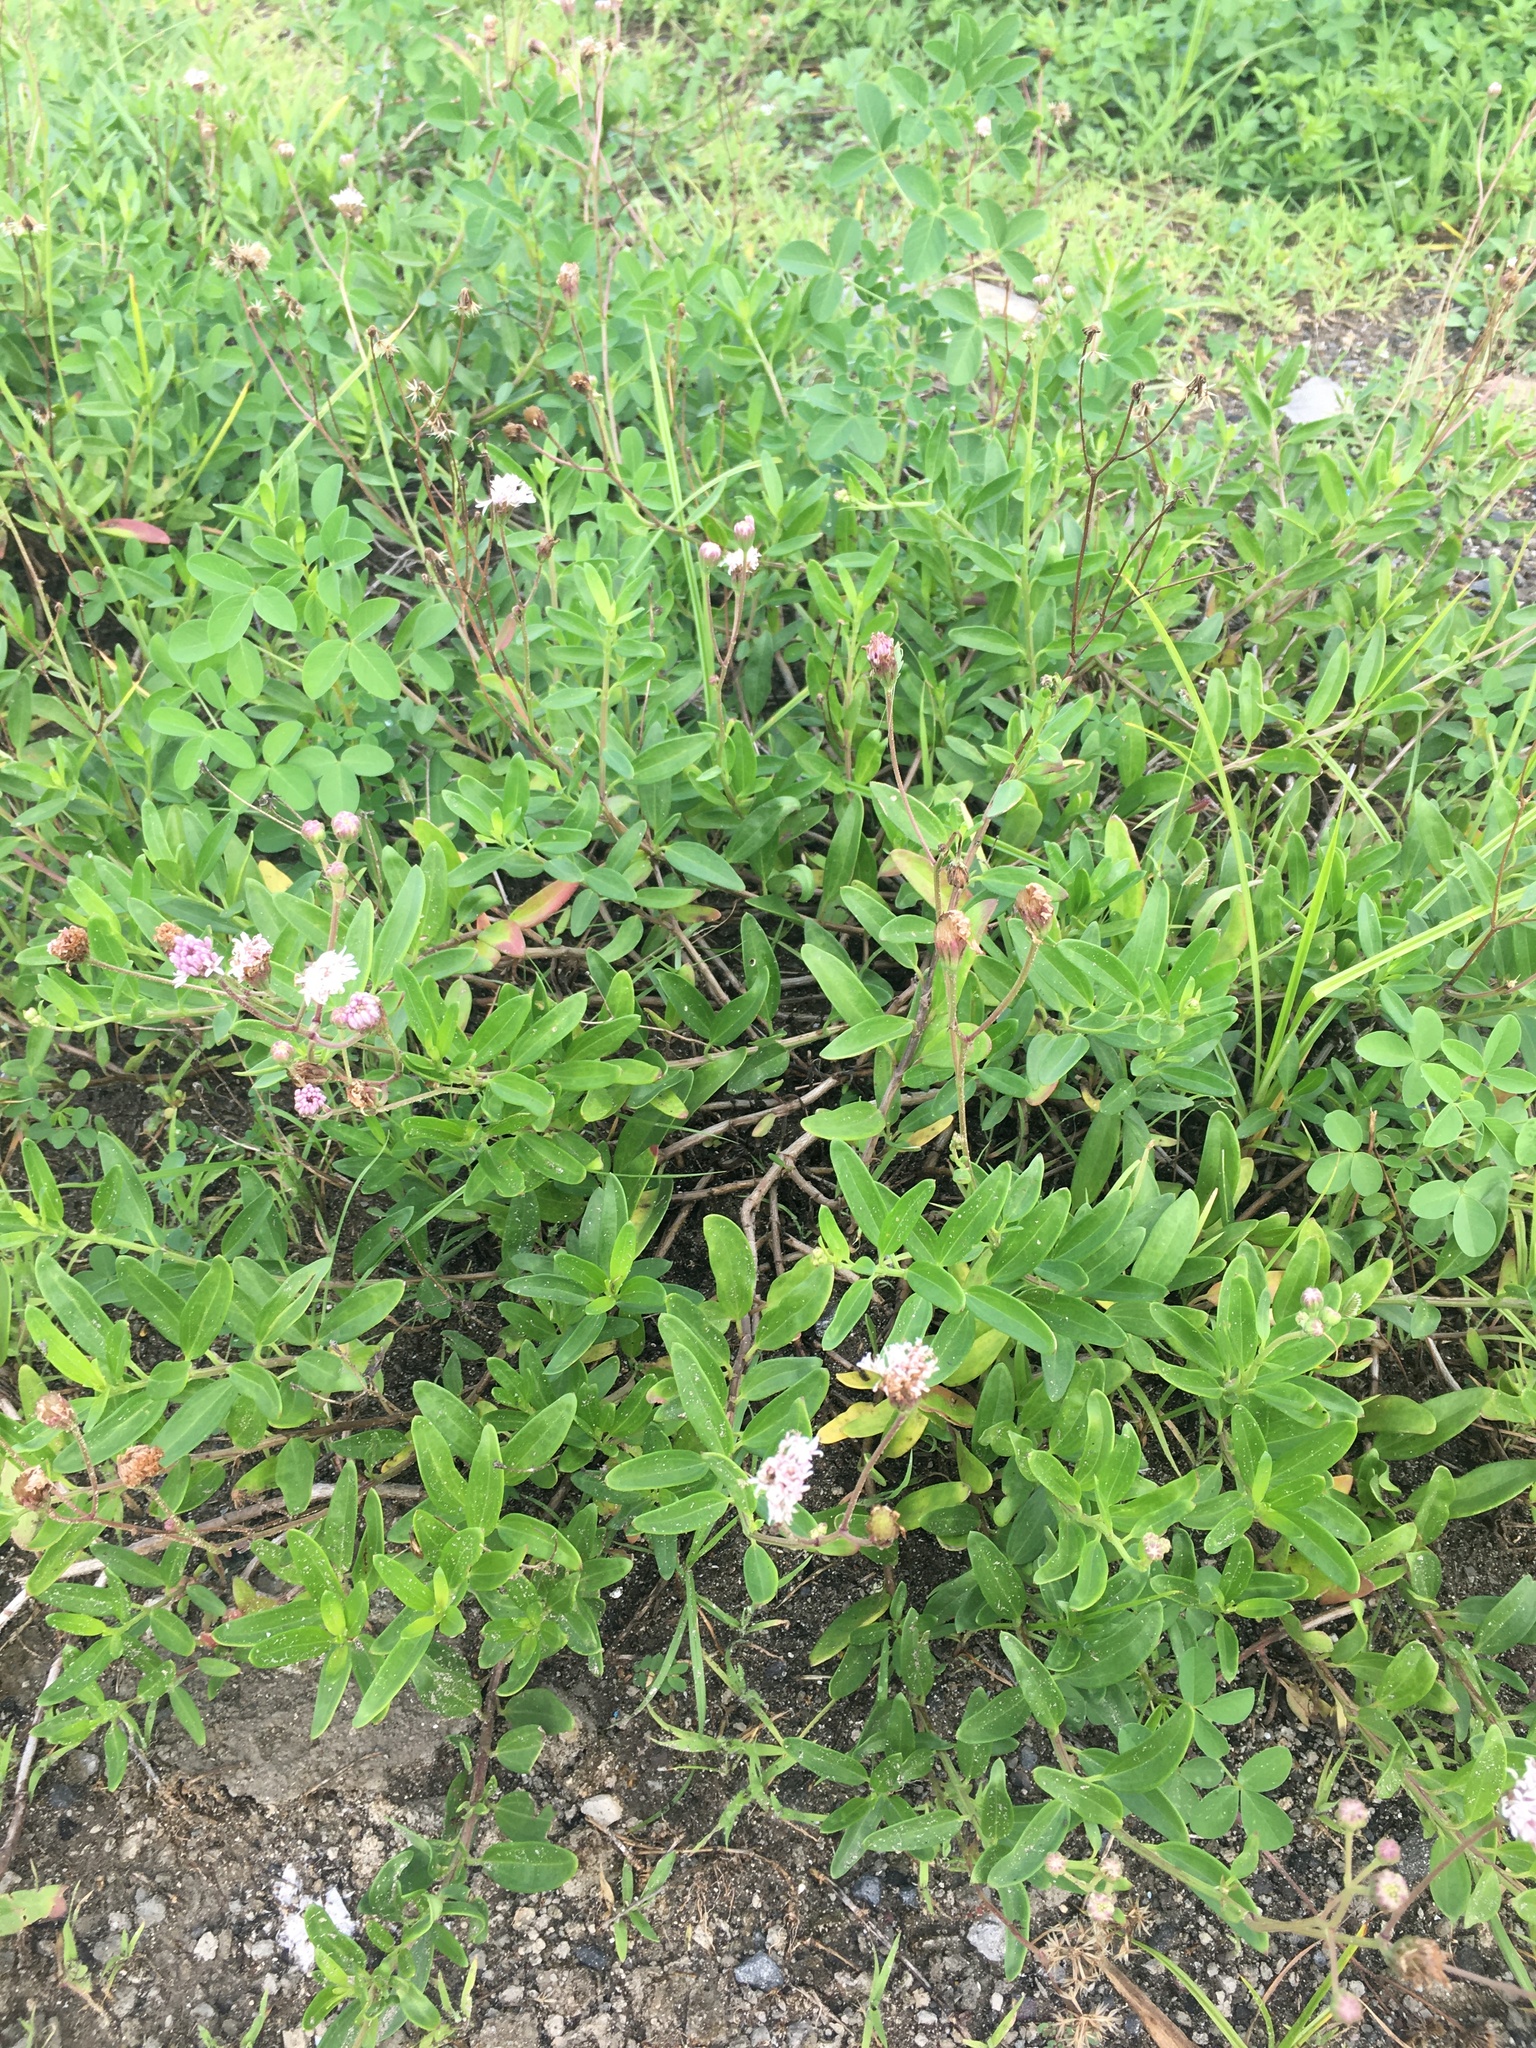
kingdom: Plantae
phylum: Tracheophyta
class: Magnoliopsida
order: Asterales
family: Asteraceae
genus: Palafoxia
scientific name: Palafoxia lindenii
